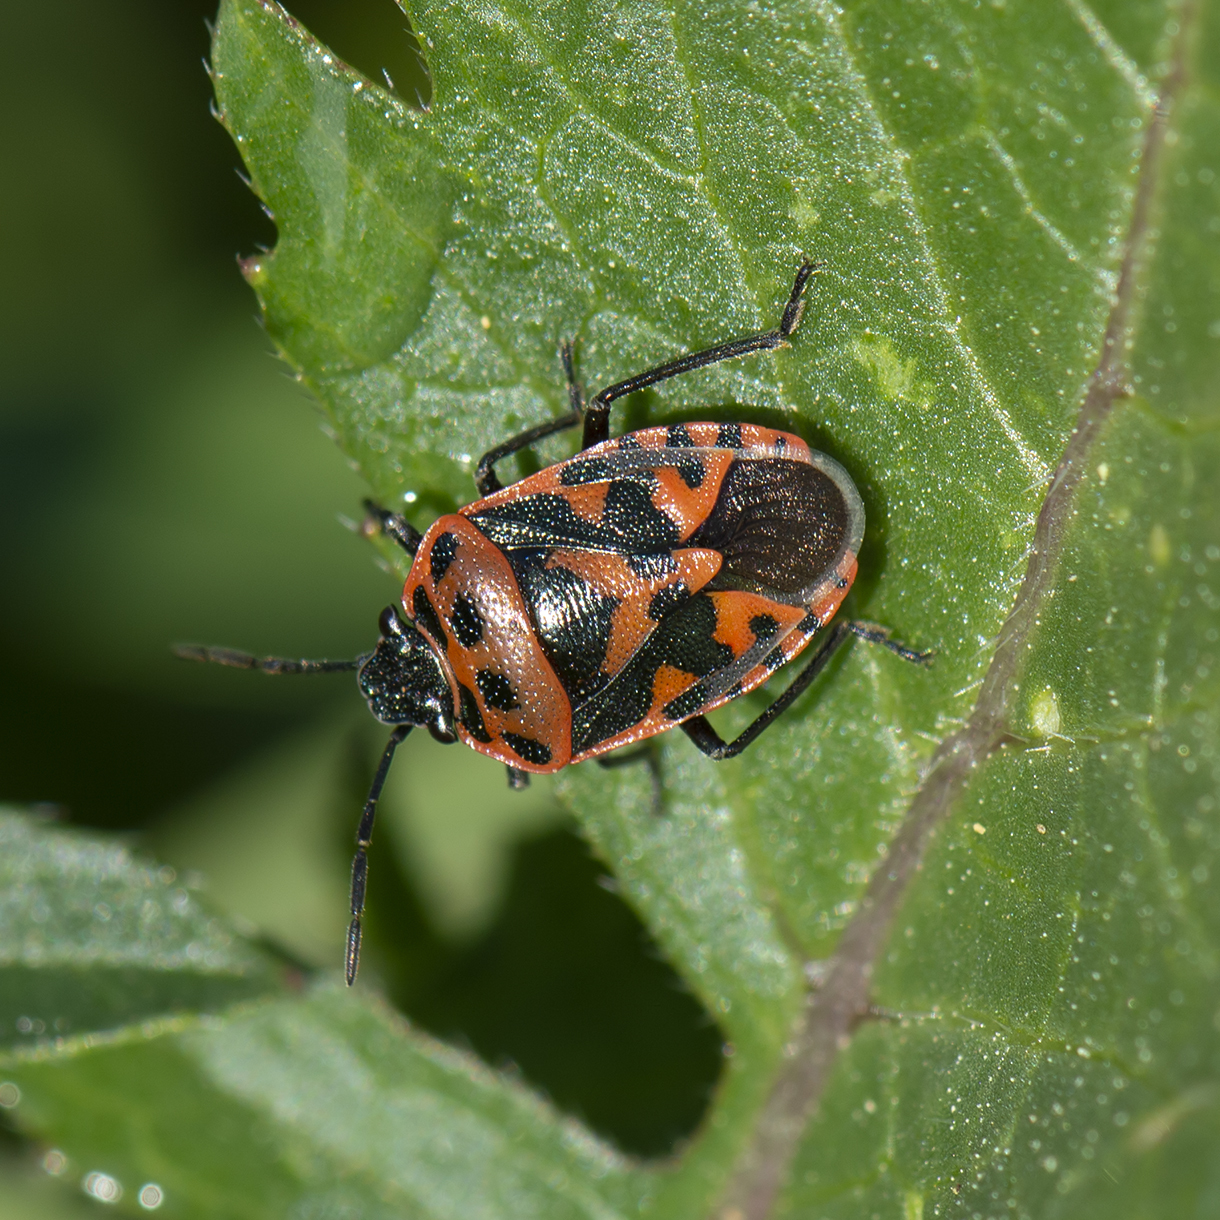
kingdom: Animalia
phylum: Arthropoda
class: Insecta
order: Hemiptera
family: Pentatomidae
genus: Eurydema
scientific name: Eurydema ornata
